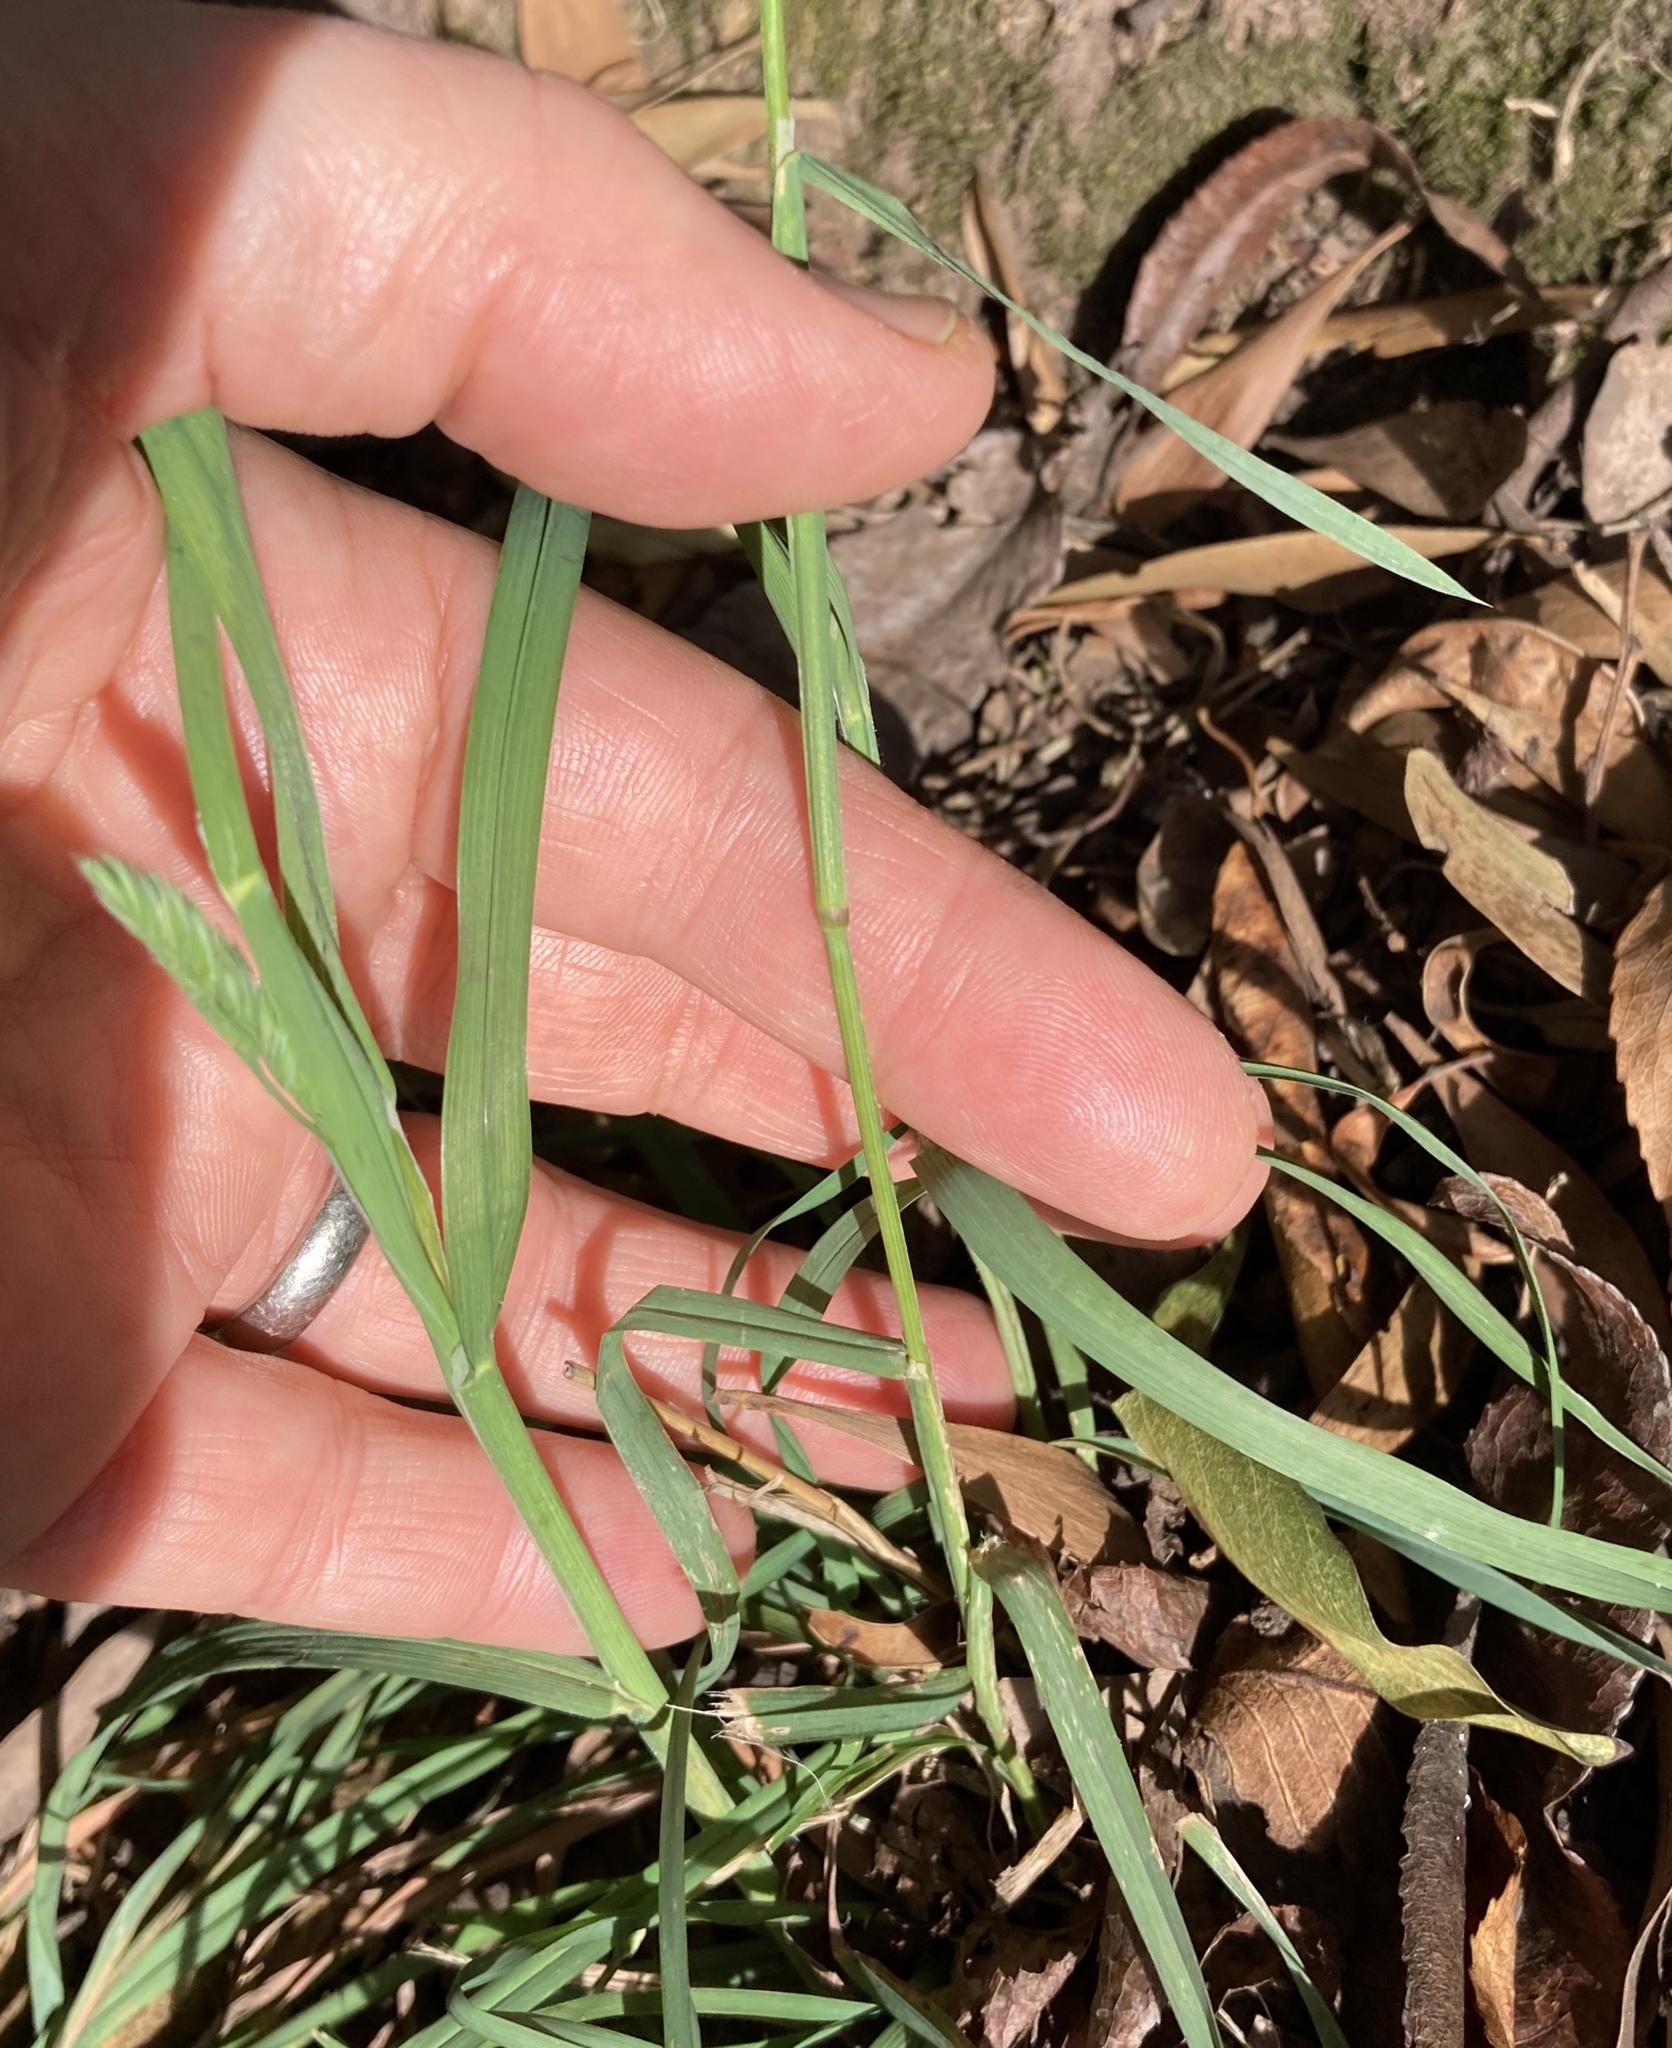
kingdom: Plantae
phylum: Tracheophyta
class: Liliopsida
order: Poales
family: Poaceae
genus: Dactylis
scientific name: Dactylis glomerata
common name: Orchardgrass
